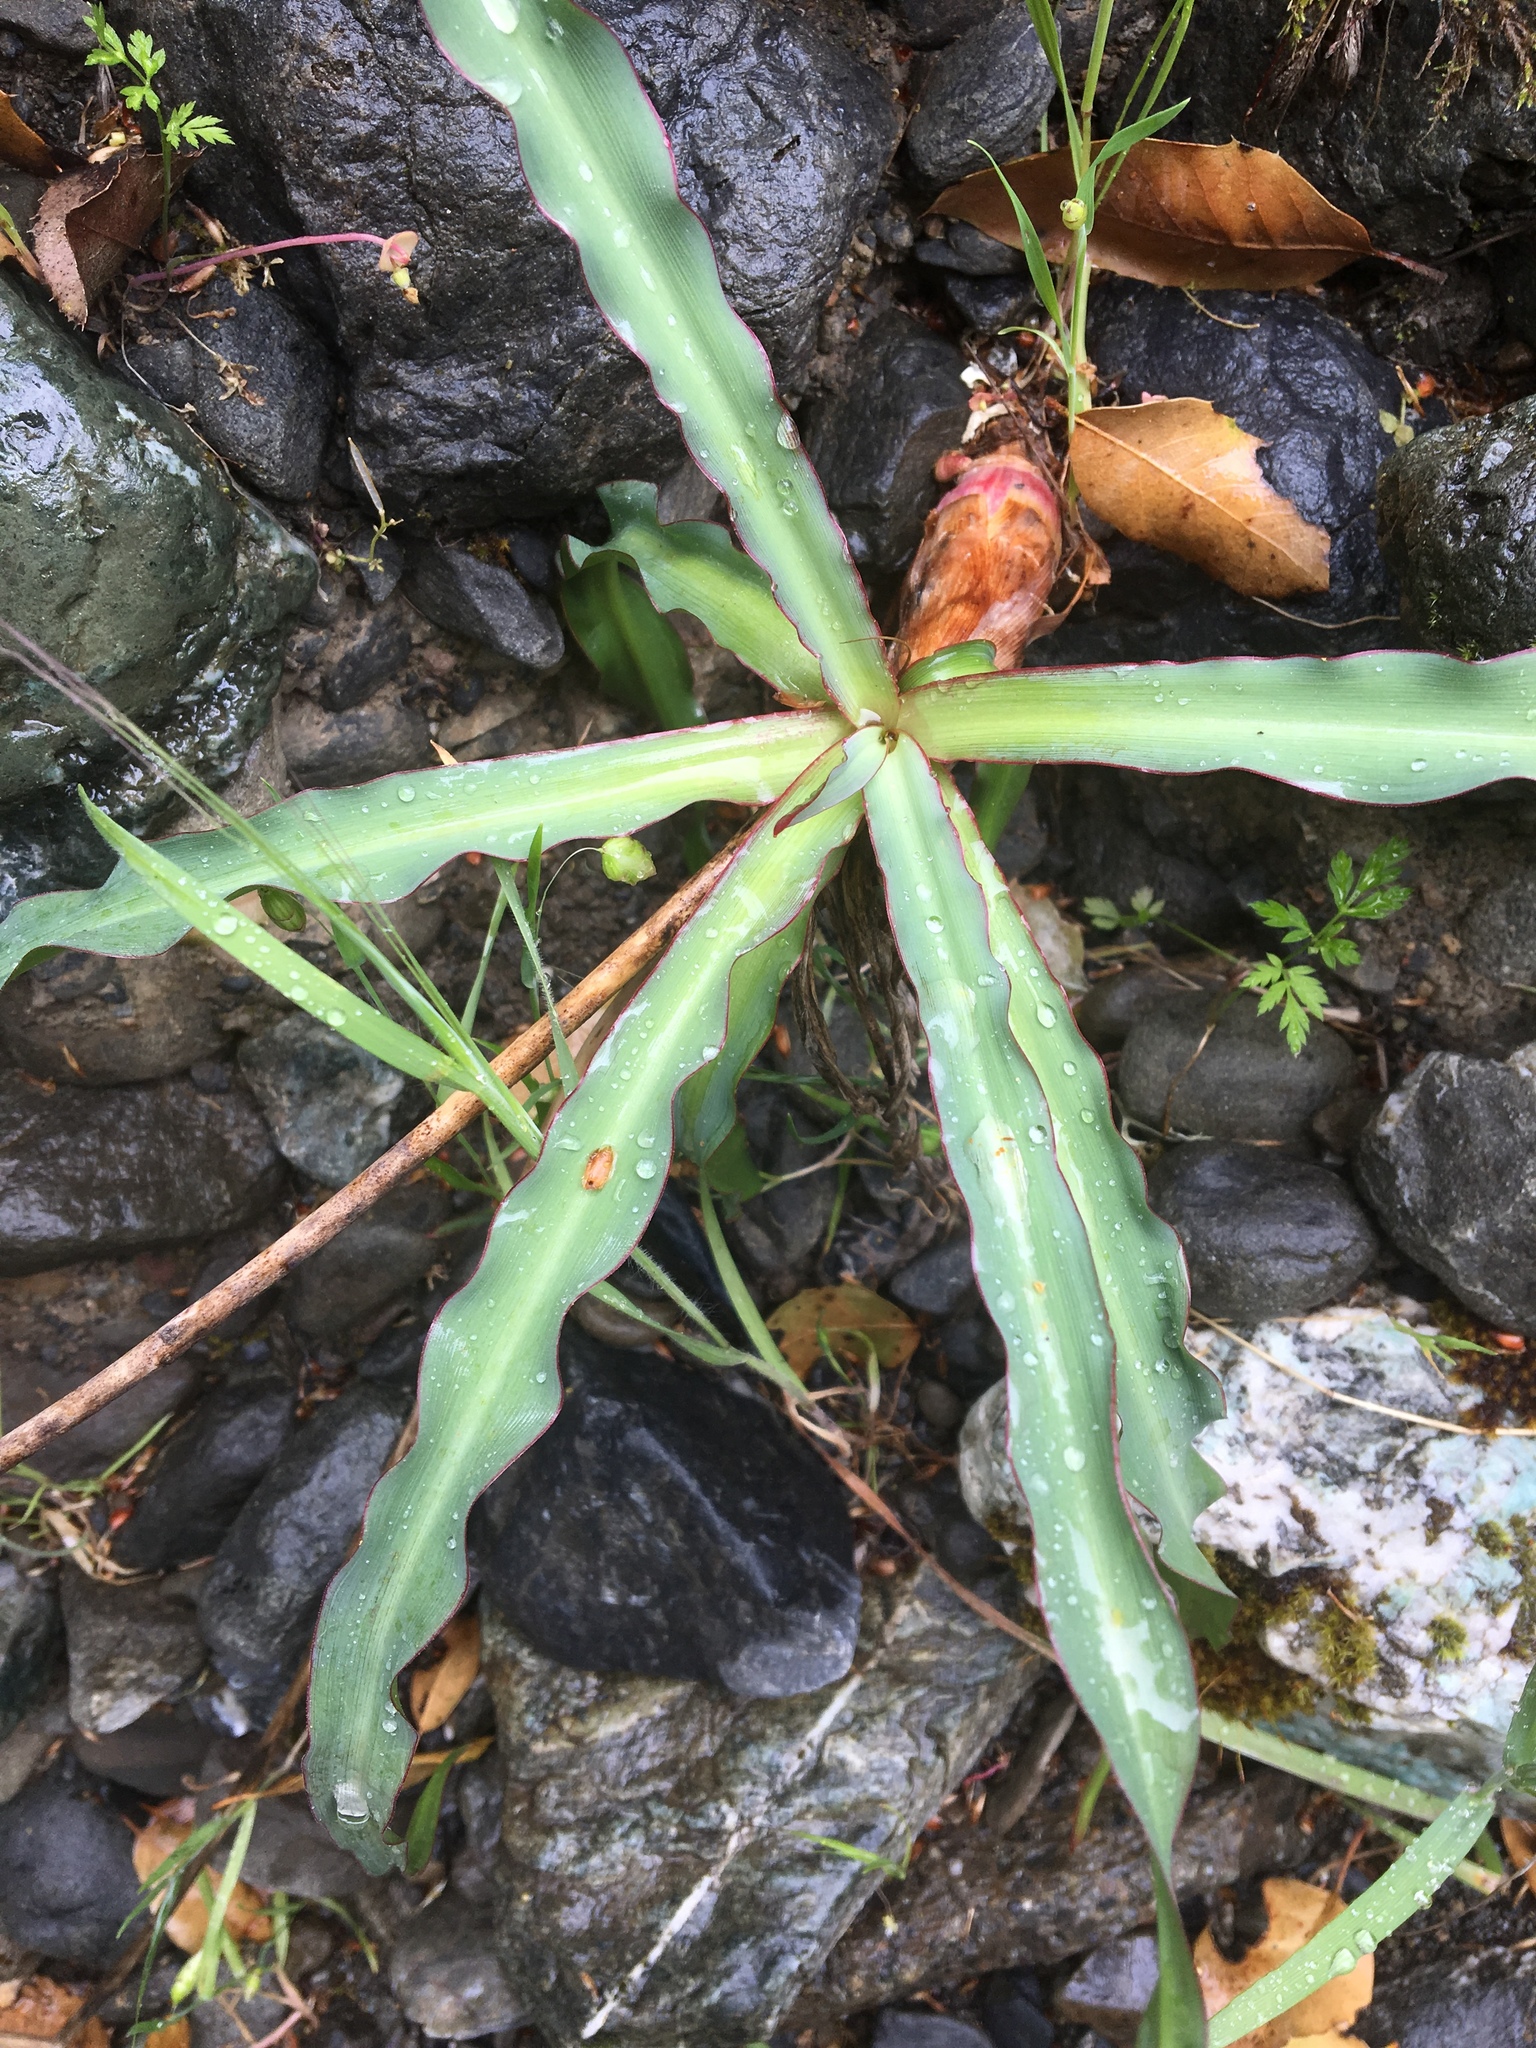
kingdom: Plantae
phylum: Tracheophyta
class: Liliopsida
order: Asparagales
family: Asparagaceae
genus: Chlorogalum
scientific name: Chlorogalum pomeridianum
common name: Amole
